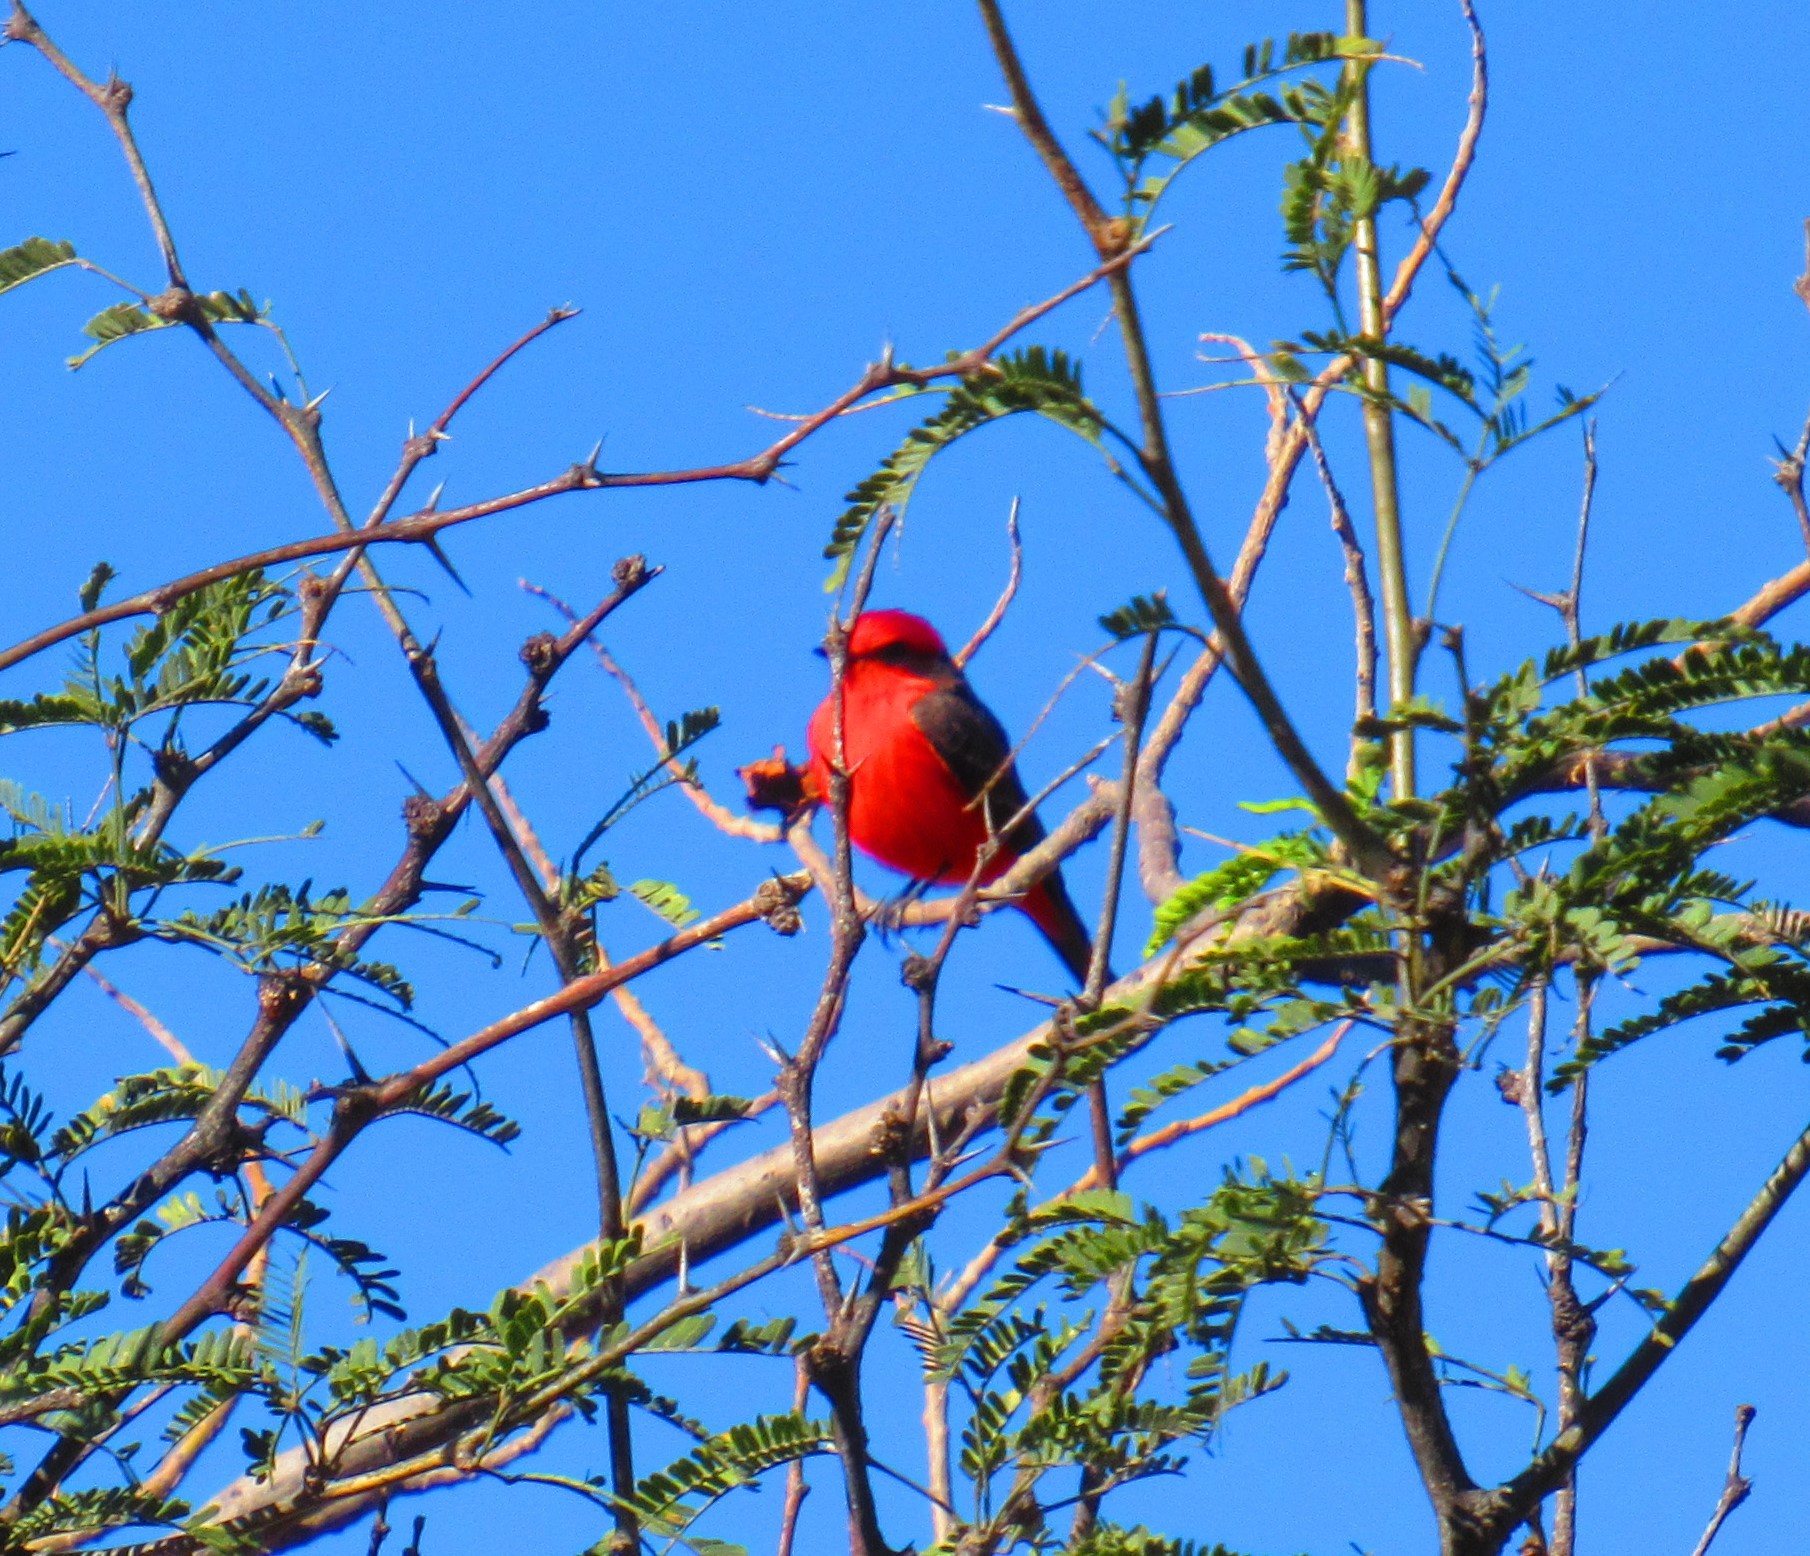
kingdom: Animalia
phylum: Chordata
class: Aves
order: Passeriformes
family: Tyrannidae
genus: Pyrocephalus
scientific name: Pyrocephalus rubinus
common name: Vermilion flycatcher
